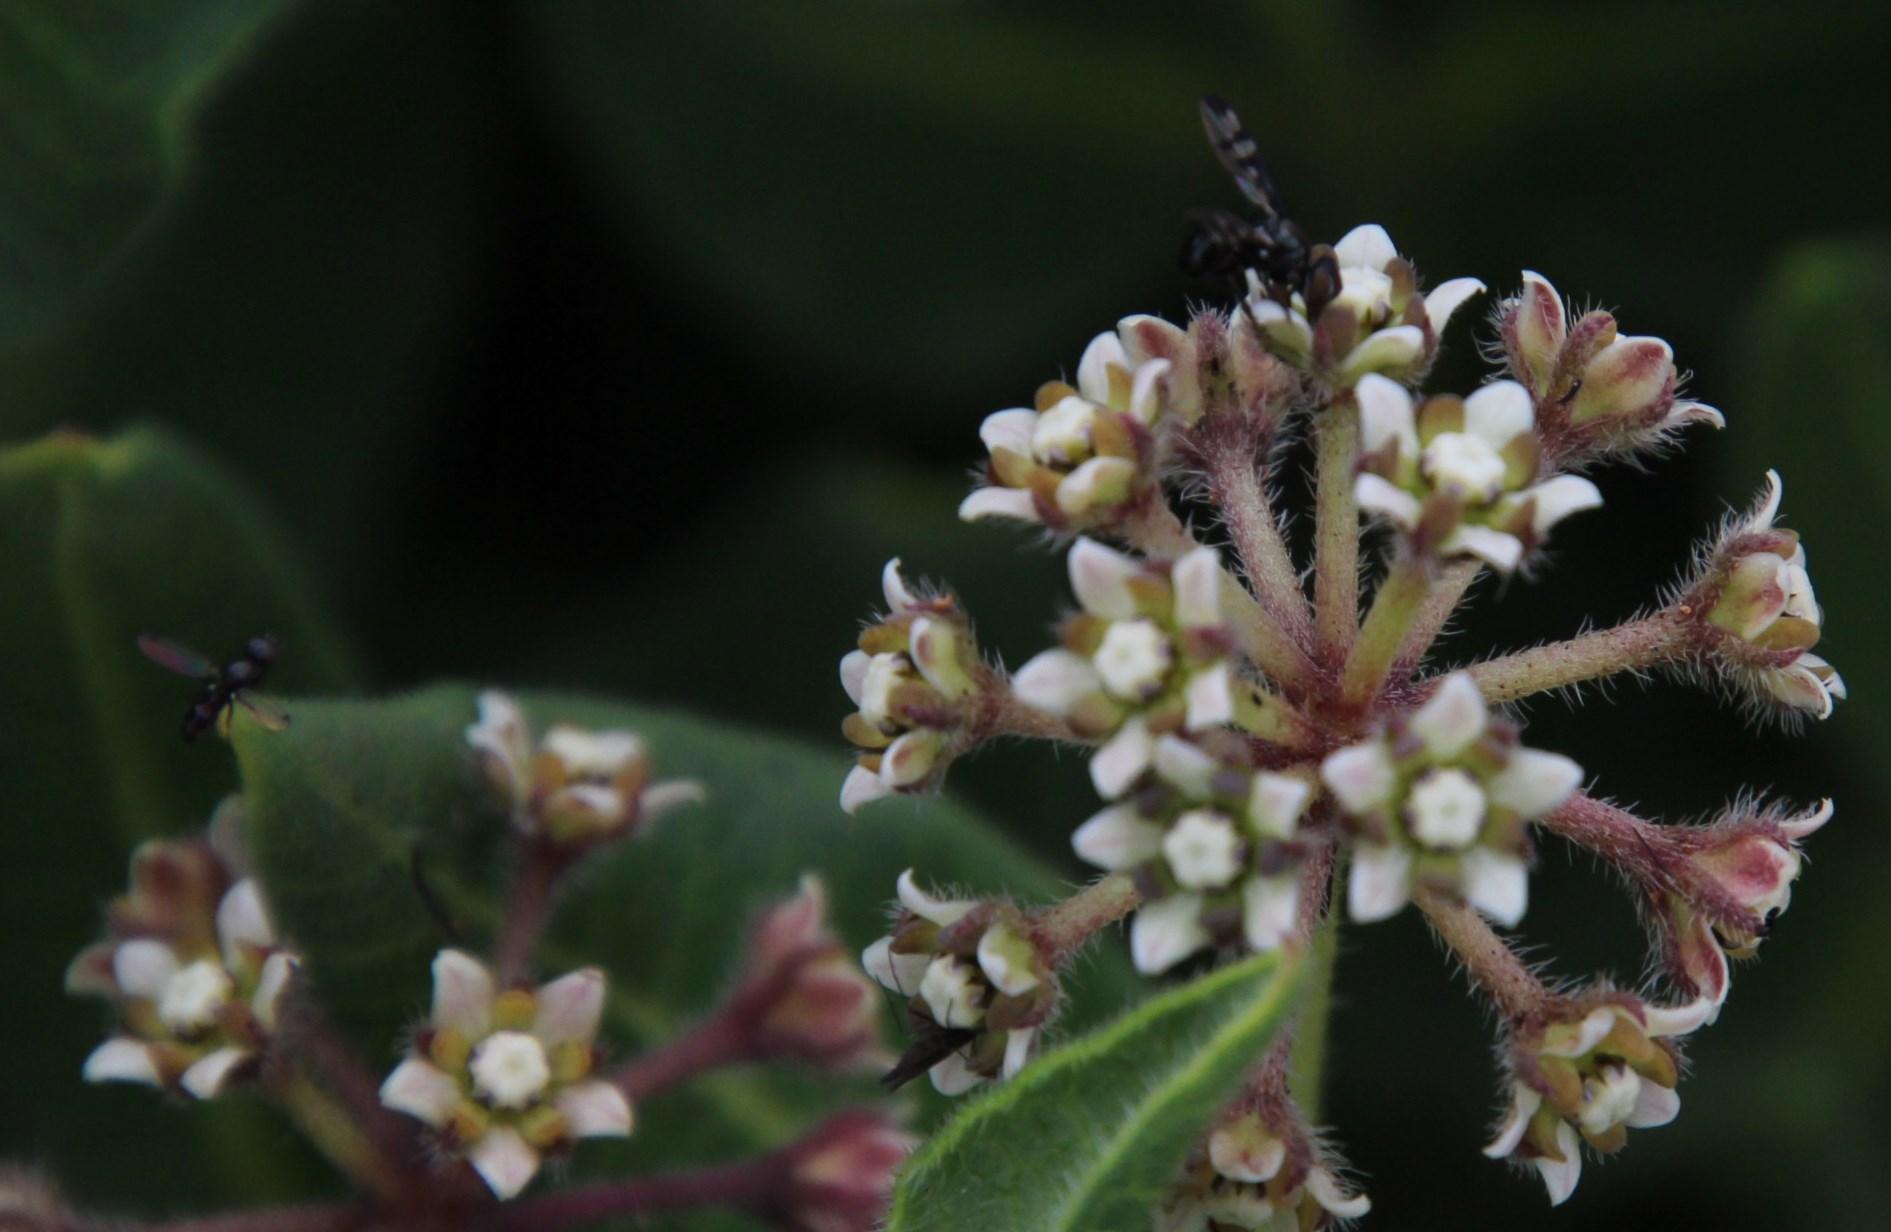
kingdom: Plantae
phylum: Tracheophyta
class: Magnoliopsida
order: Gentianales
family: Apocynaceae
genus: Xysmalobium
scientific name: Xysmalobium parviflorum
